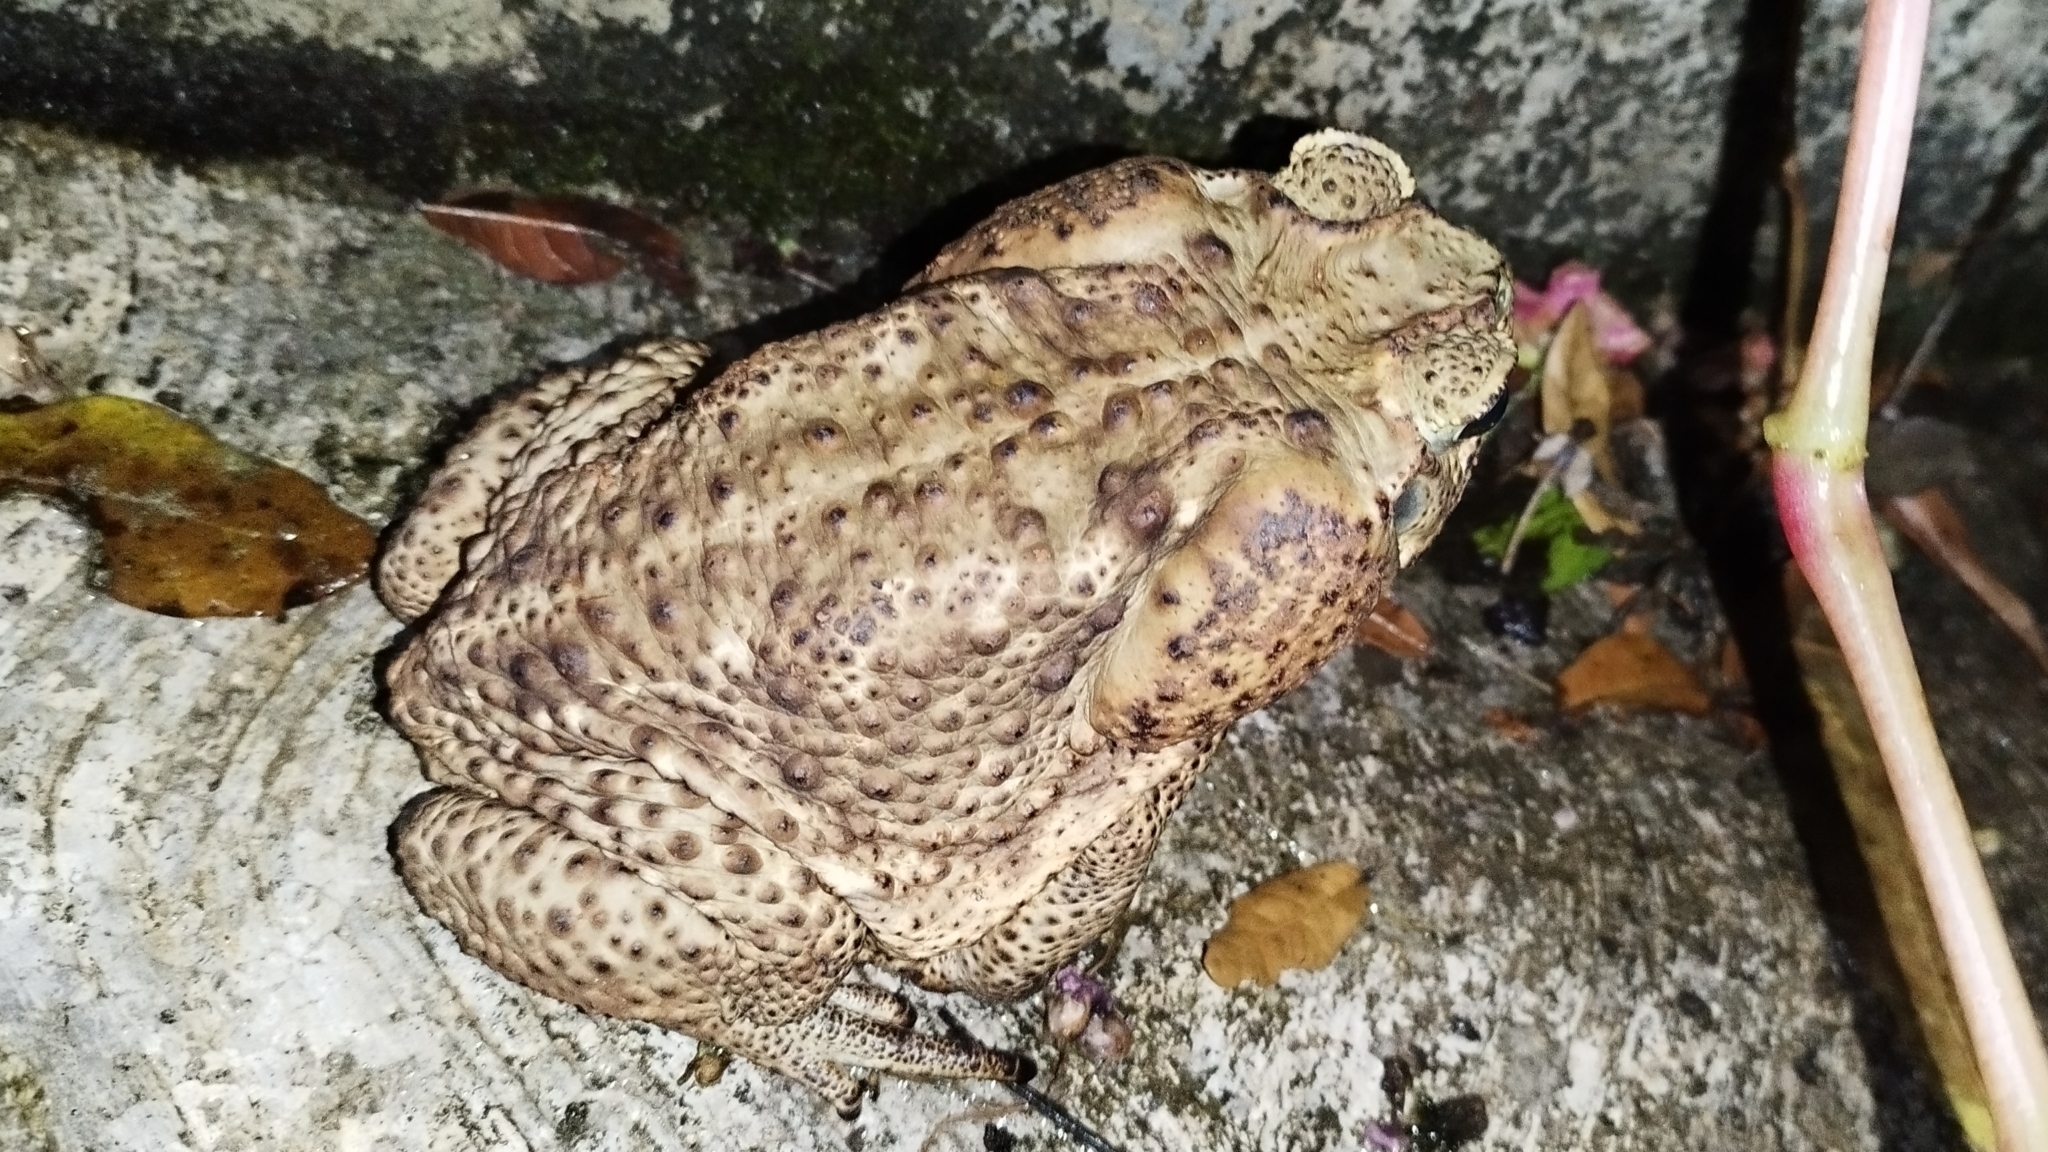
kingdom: Animalia
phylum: Chordata
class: Amphibia
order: Anura
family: Bufonidae
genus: Rhinella
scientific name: Rhinella horribilis
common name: Mesoamerican cane toad
